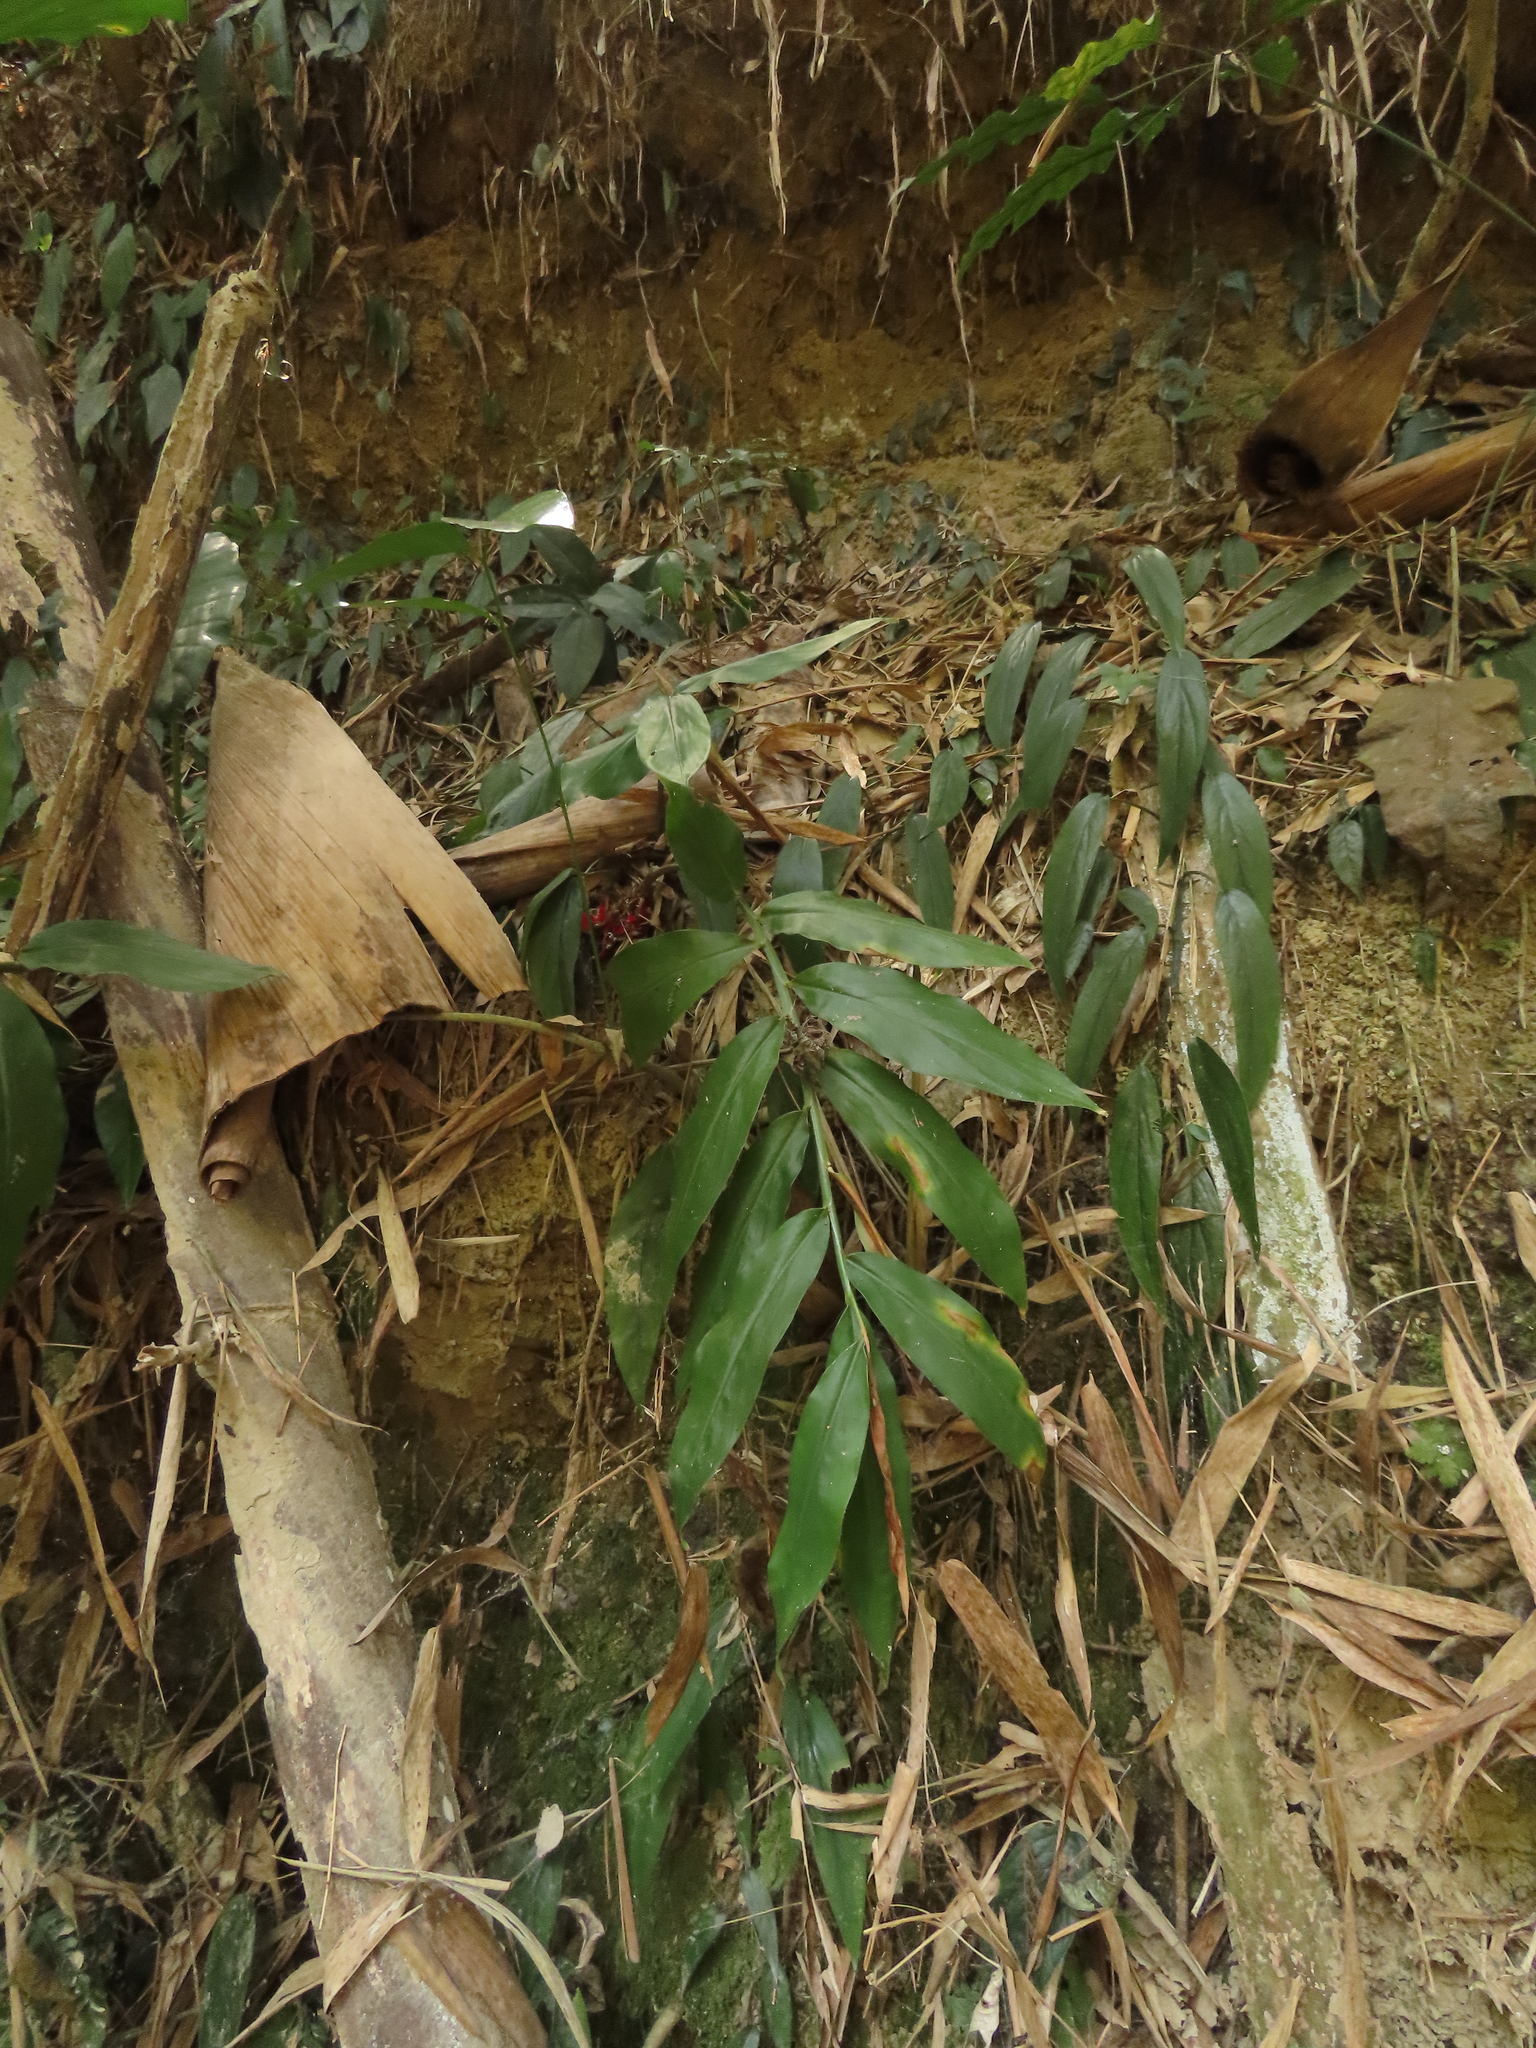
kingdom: Plantae
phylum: Tracheophyta
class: Liliopsida
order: Zingiberales
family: Zingiberaceae
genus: Zingiber
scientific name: Zingiber kawagoii
